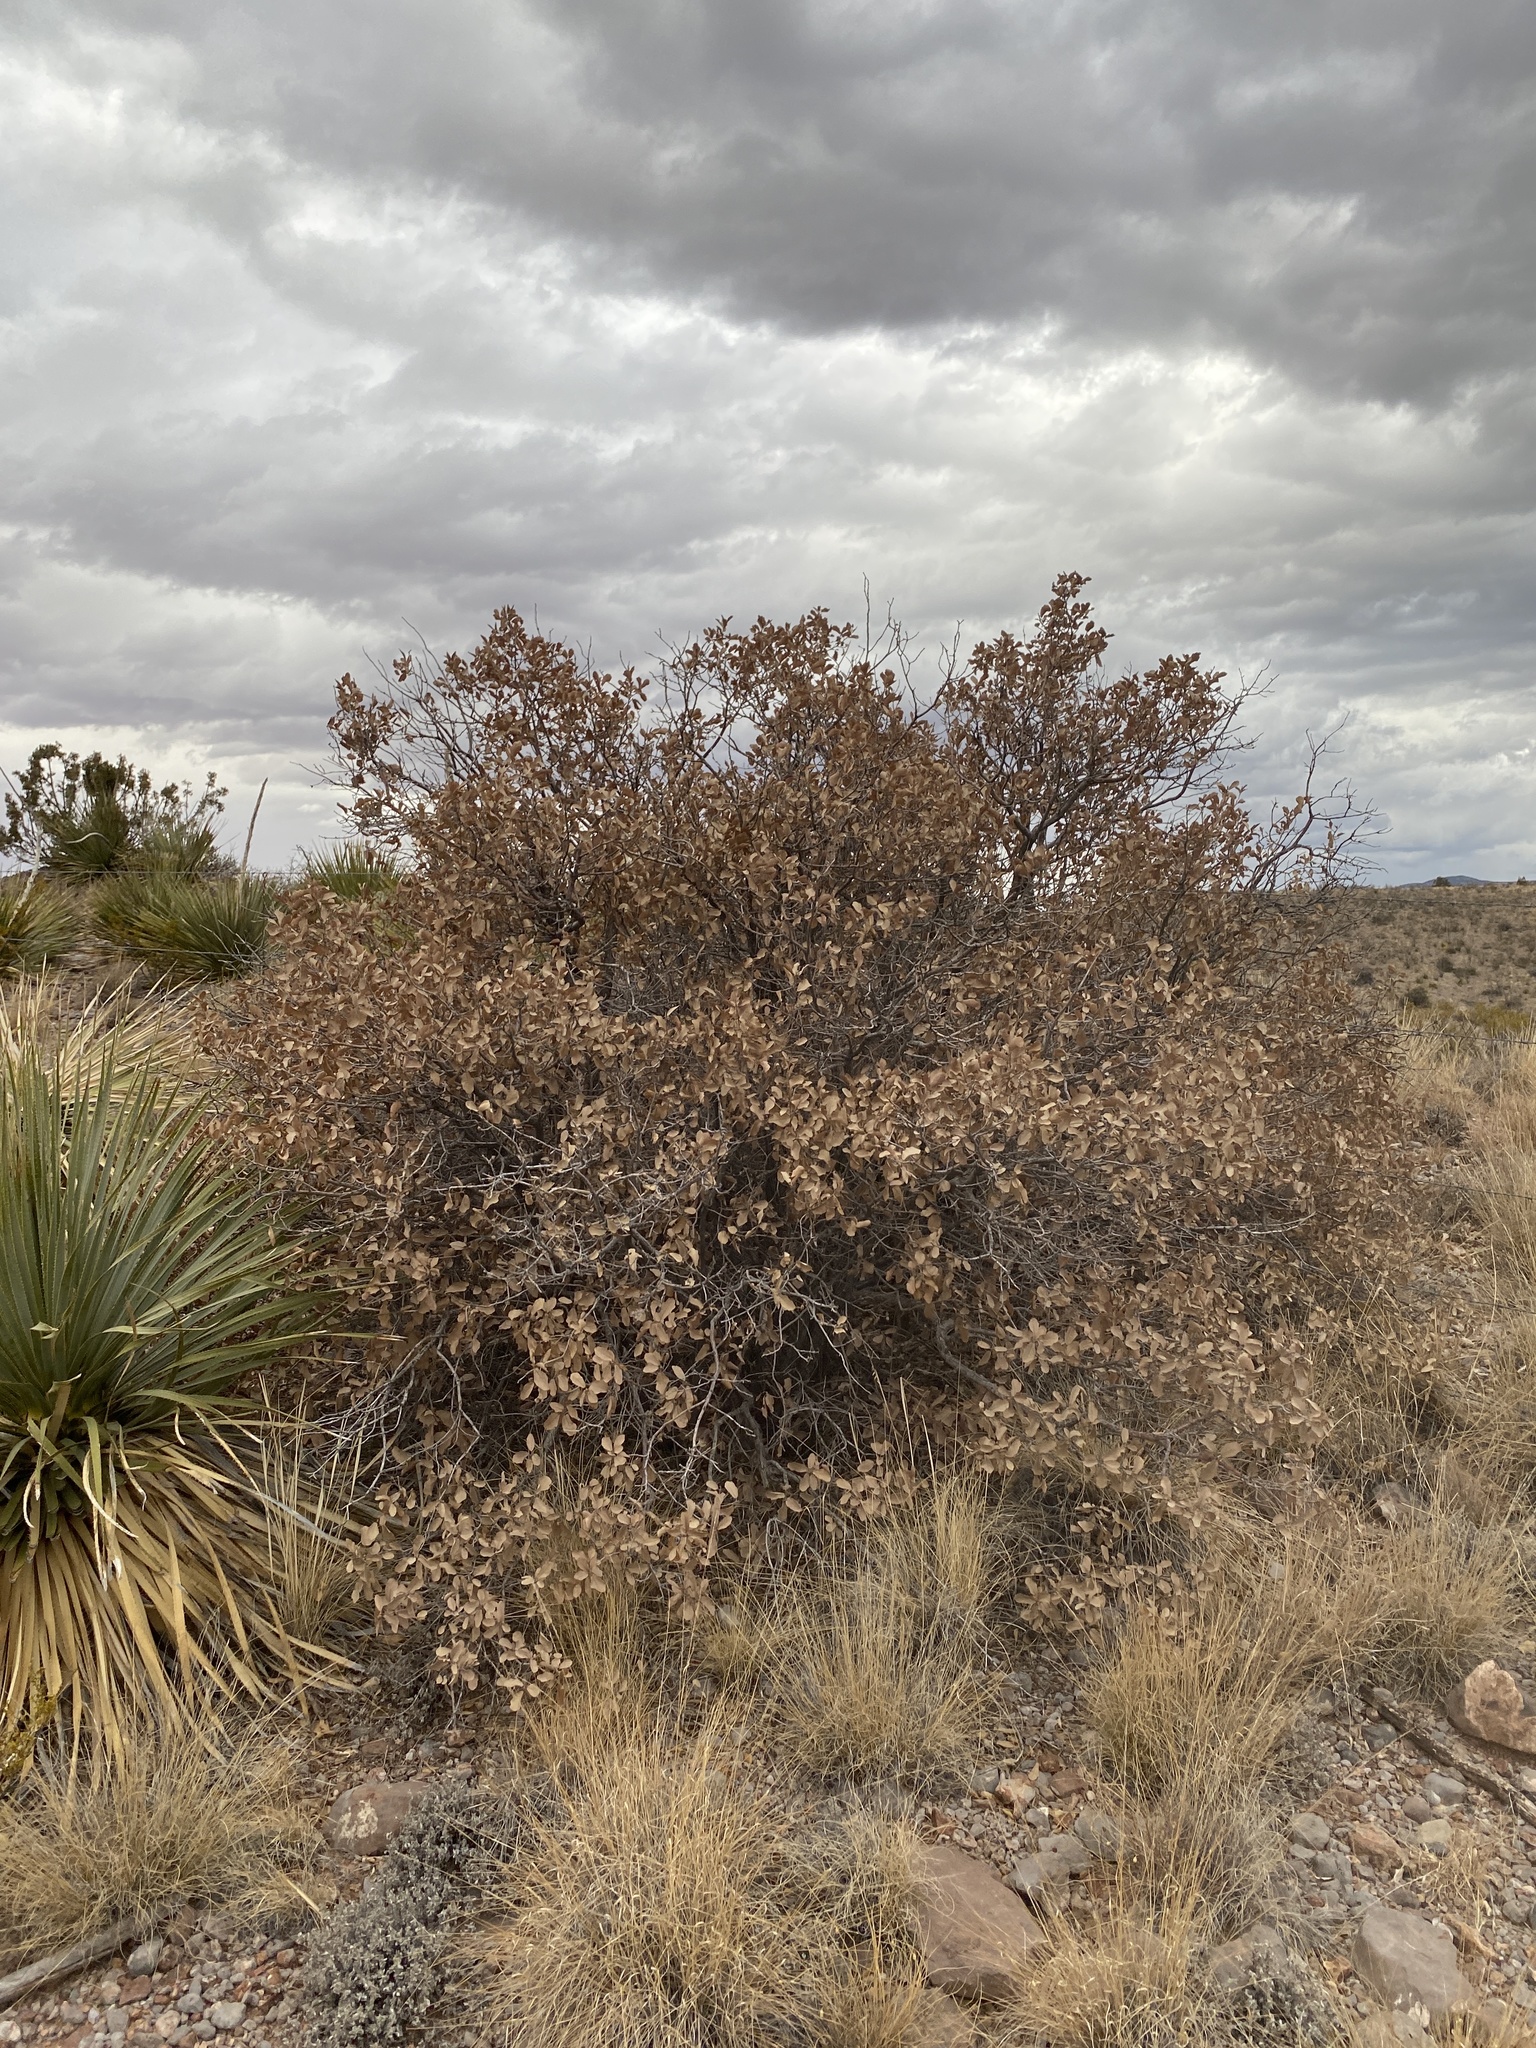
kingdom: Plantae
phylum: Tracheophyta
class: Magnoliopsida
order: Fagales
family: Fagaceae
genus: Quercus
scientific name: Quercus undulata
